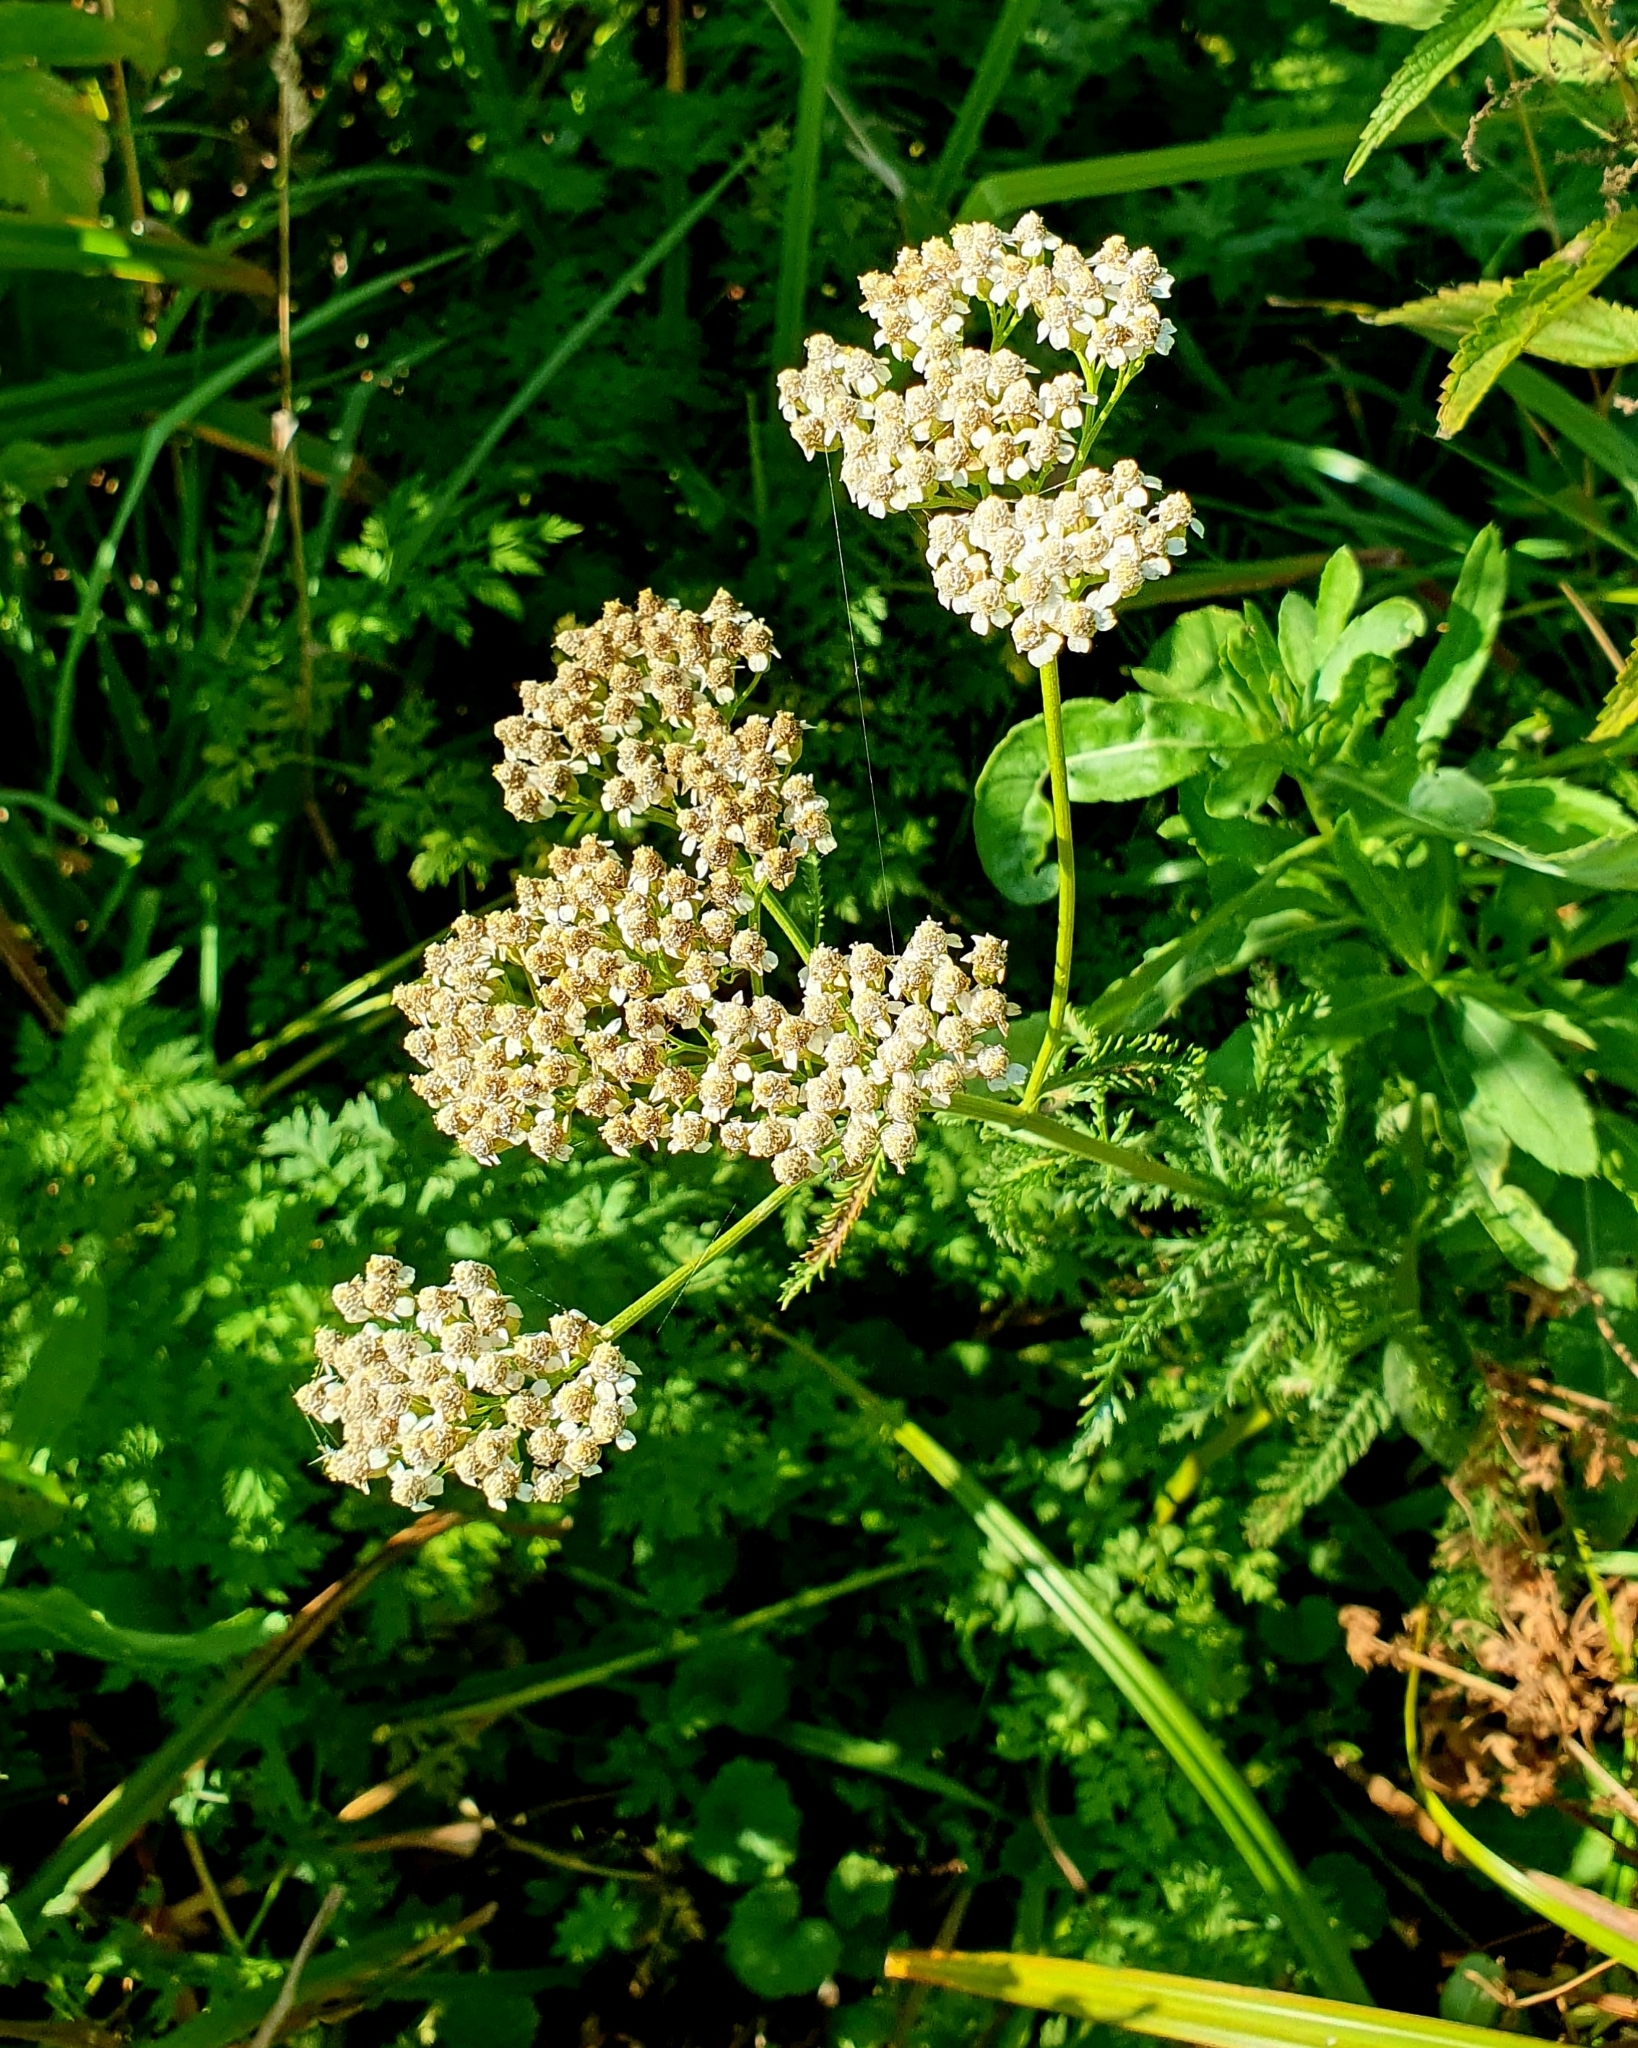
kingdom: Plantae
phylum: Tracheophyta
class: Magnoliopsida
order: Asterales
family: Asteraceae
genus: Achillea
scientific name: Achillea millefolium
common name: Yarrow
